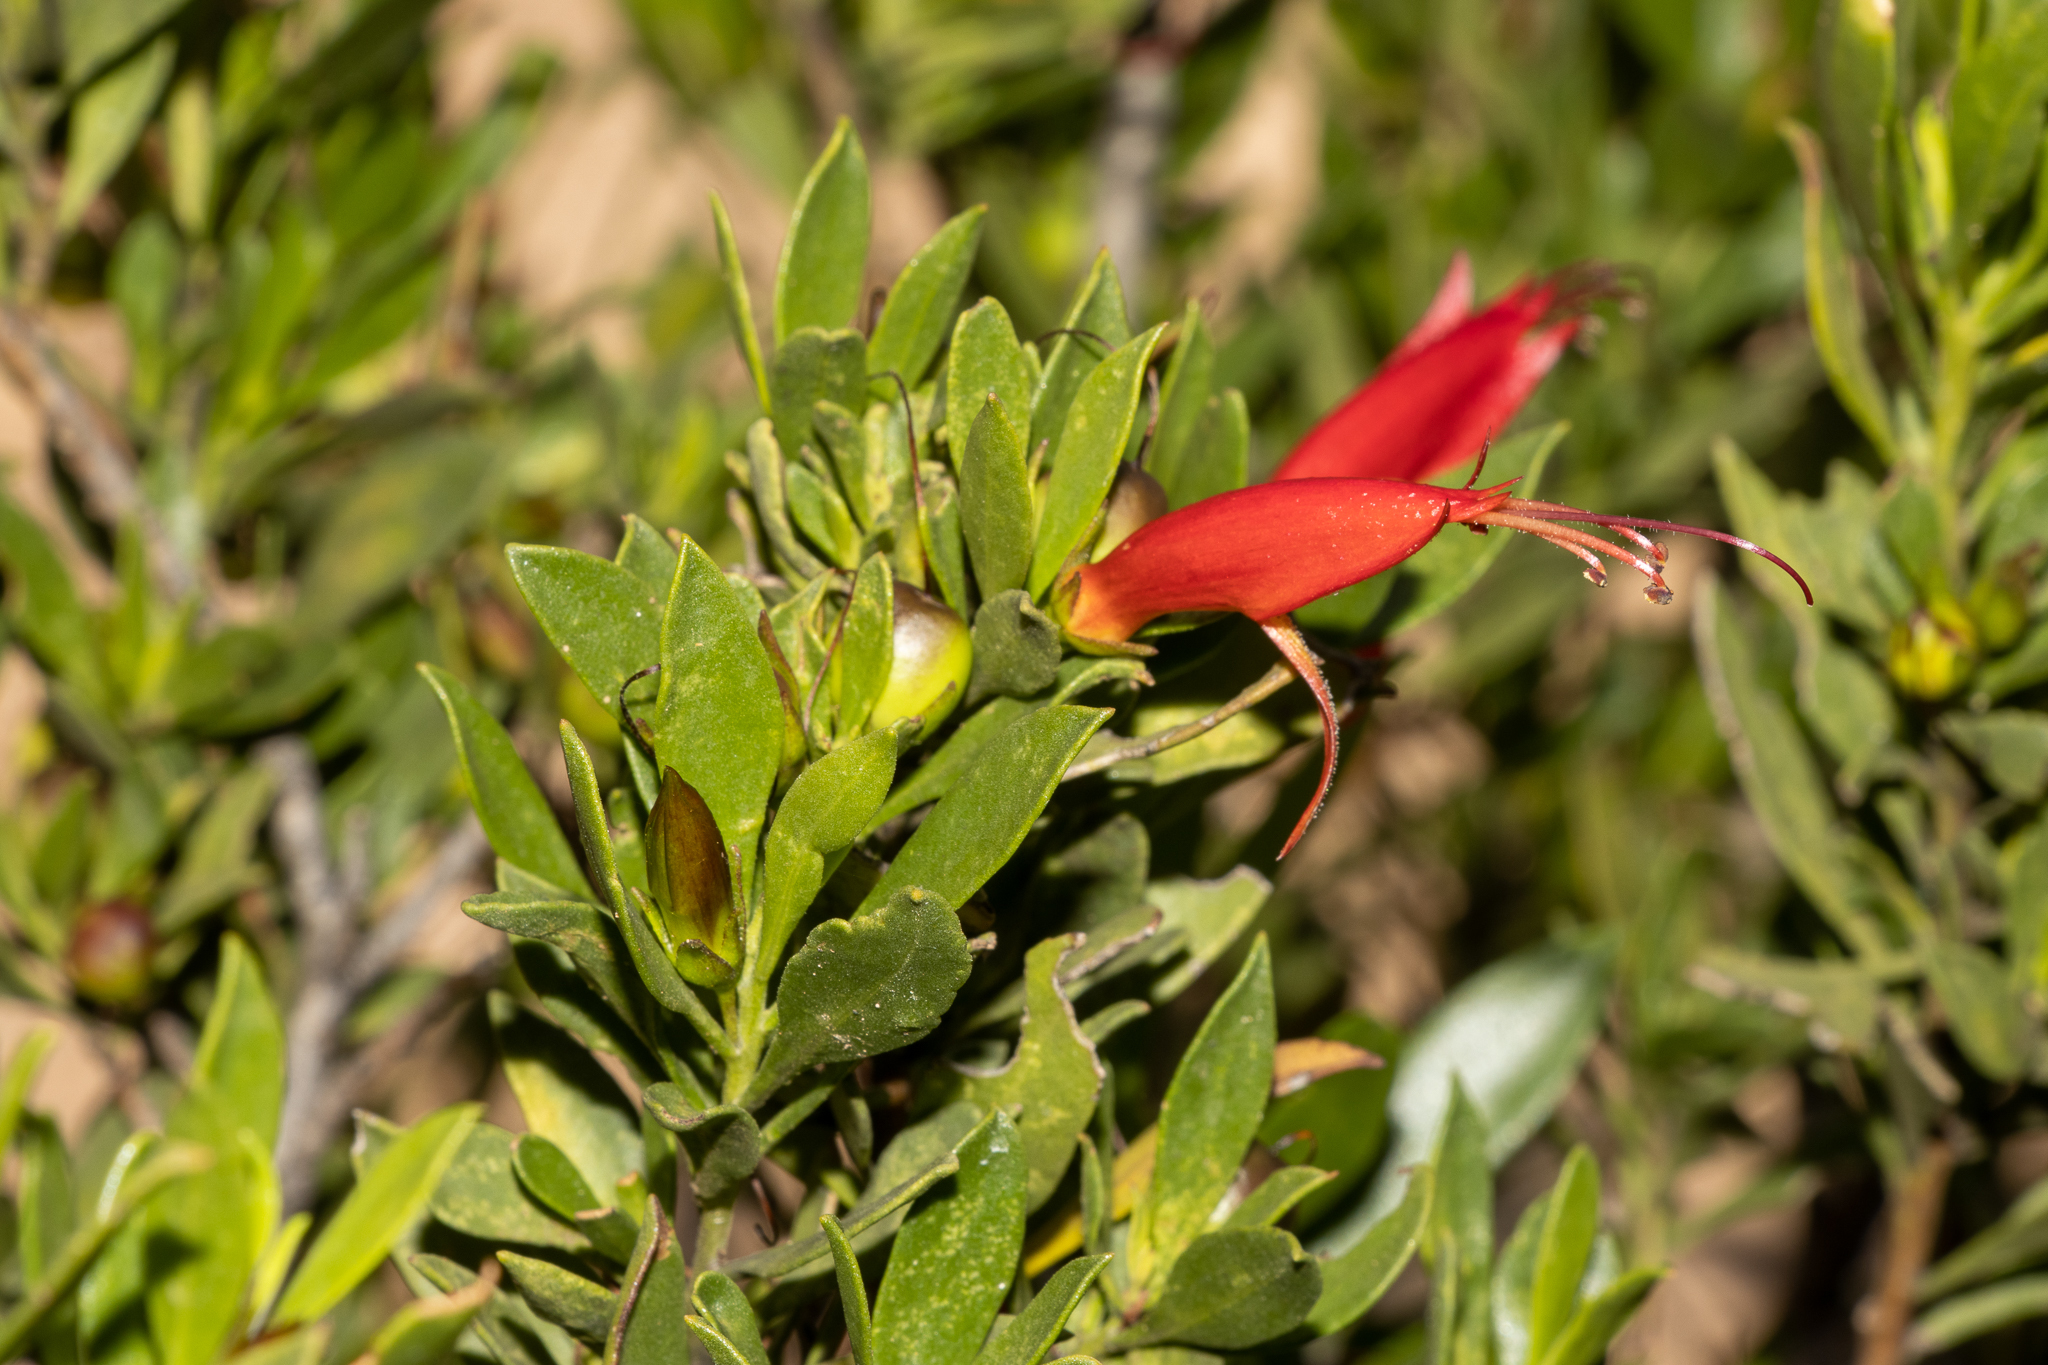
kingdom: Plantae
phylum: Tracheophyta
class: Magnoliopsida
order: Lamiales
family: Scrophulariaceae
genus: Eremophila
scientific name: Eremophila glabra
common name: Black-fuchsia
